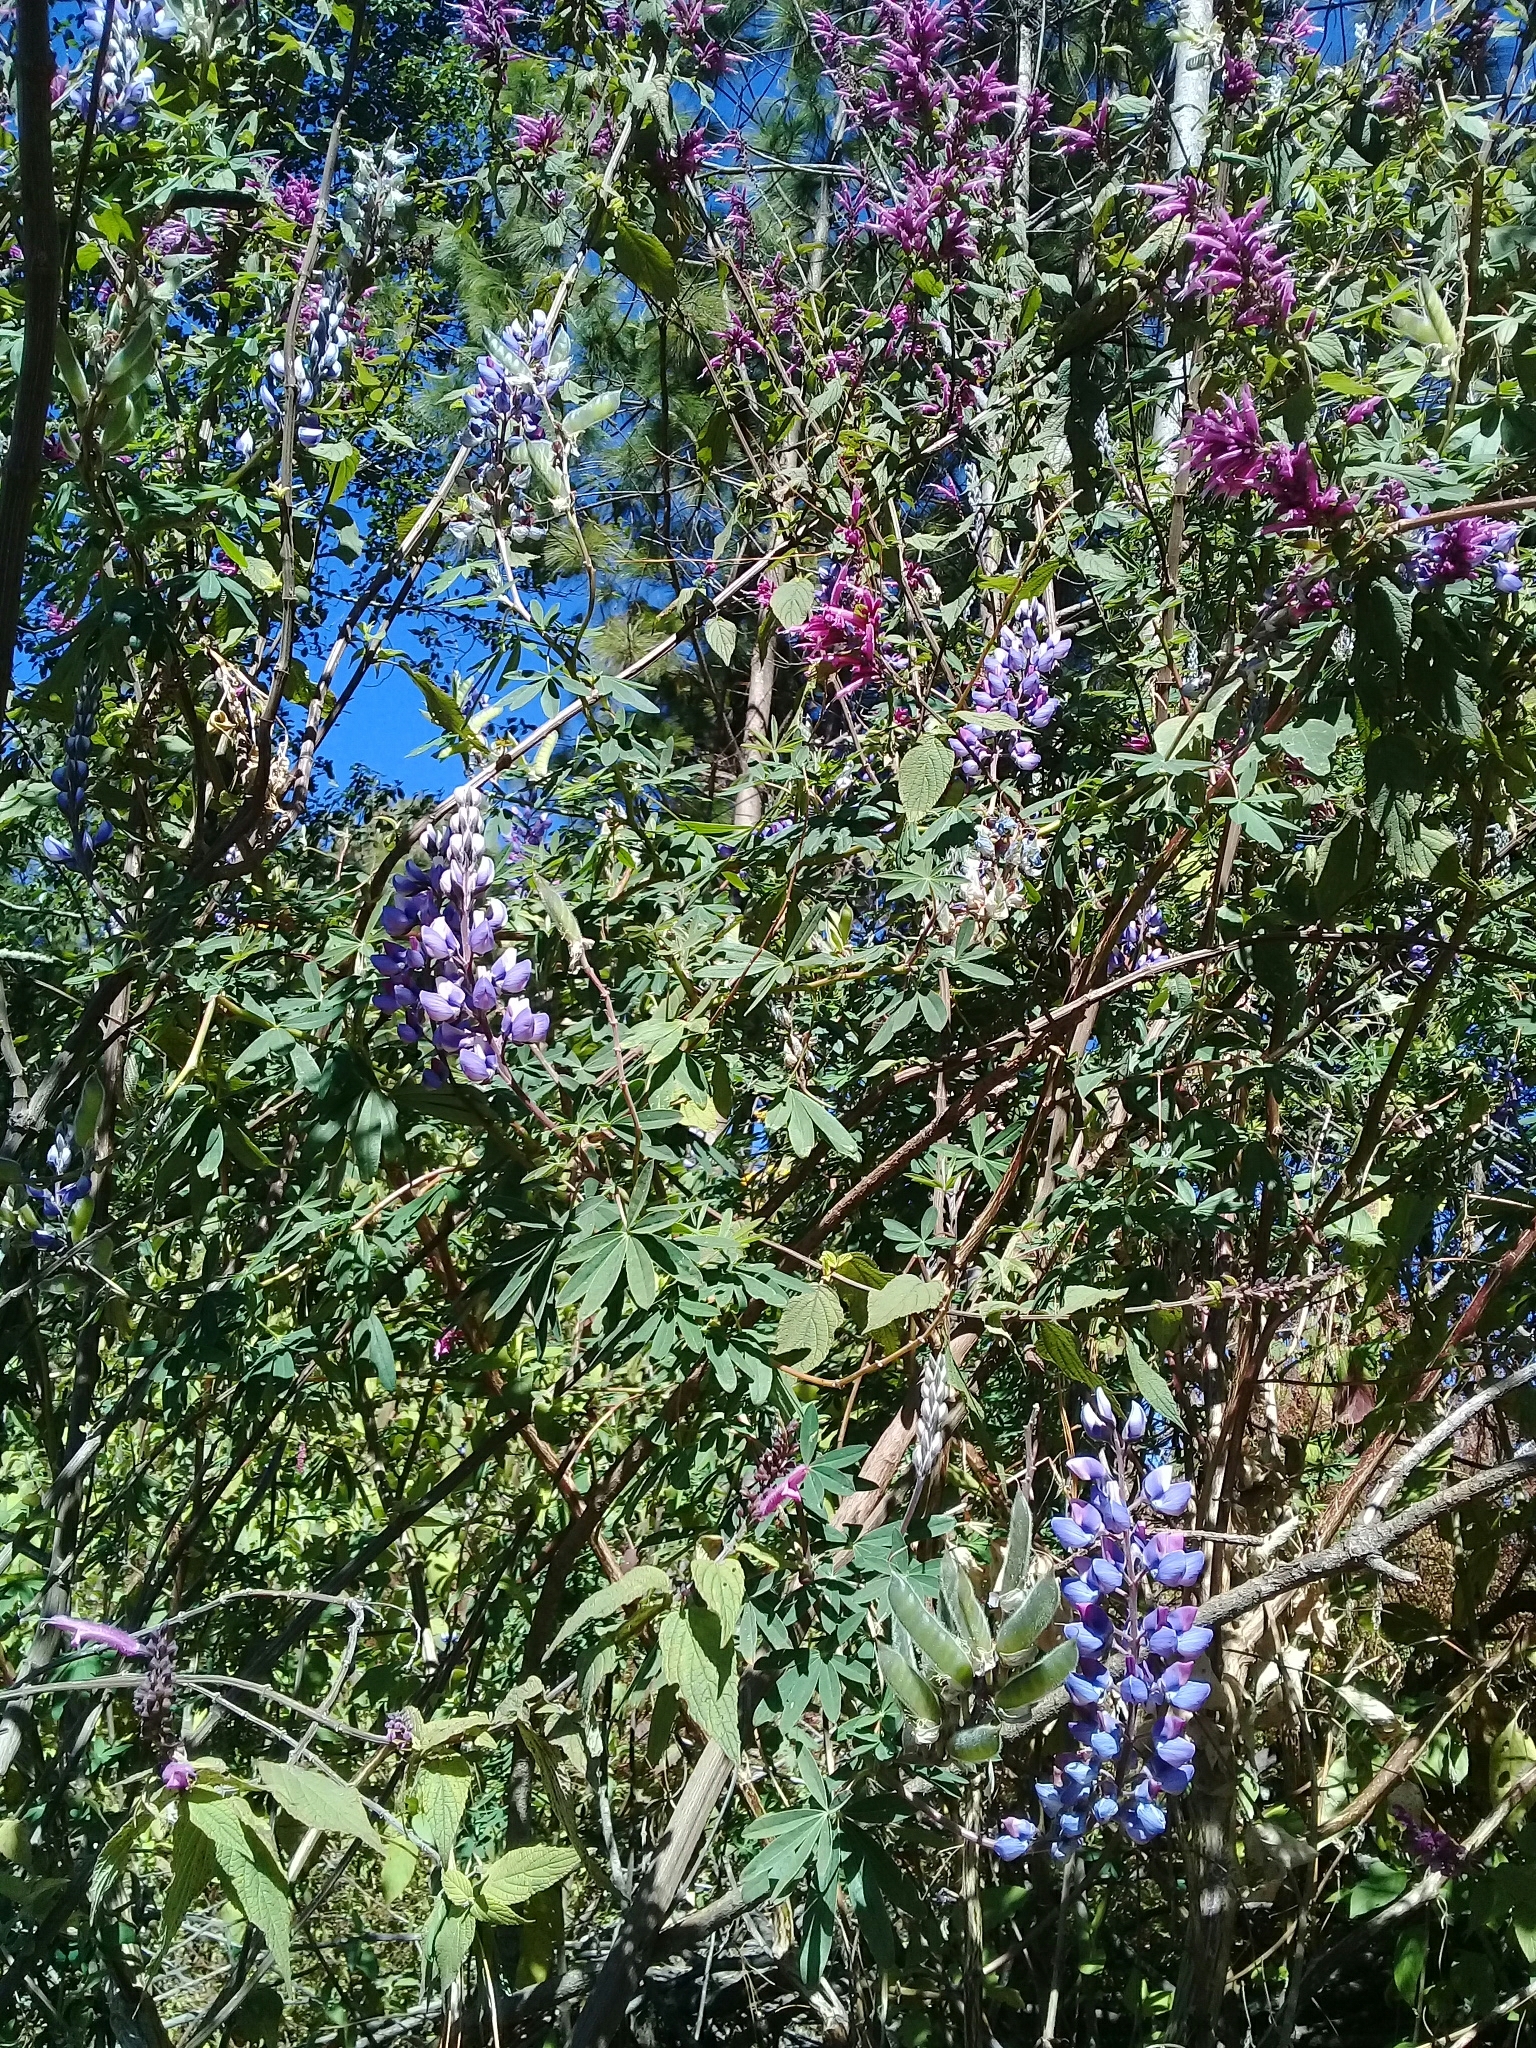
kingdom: Plantae
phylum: Tracheophyta
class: Magnoliopsida
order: Fabales
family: Fabaceae
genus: Lupinus
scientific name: Lupinus elegans
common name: Mexican lupine
